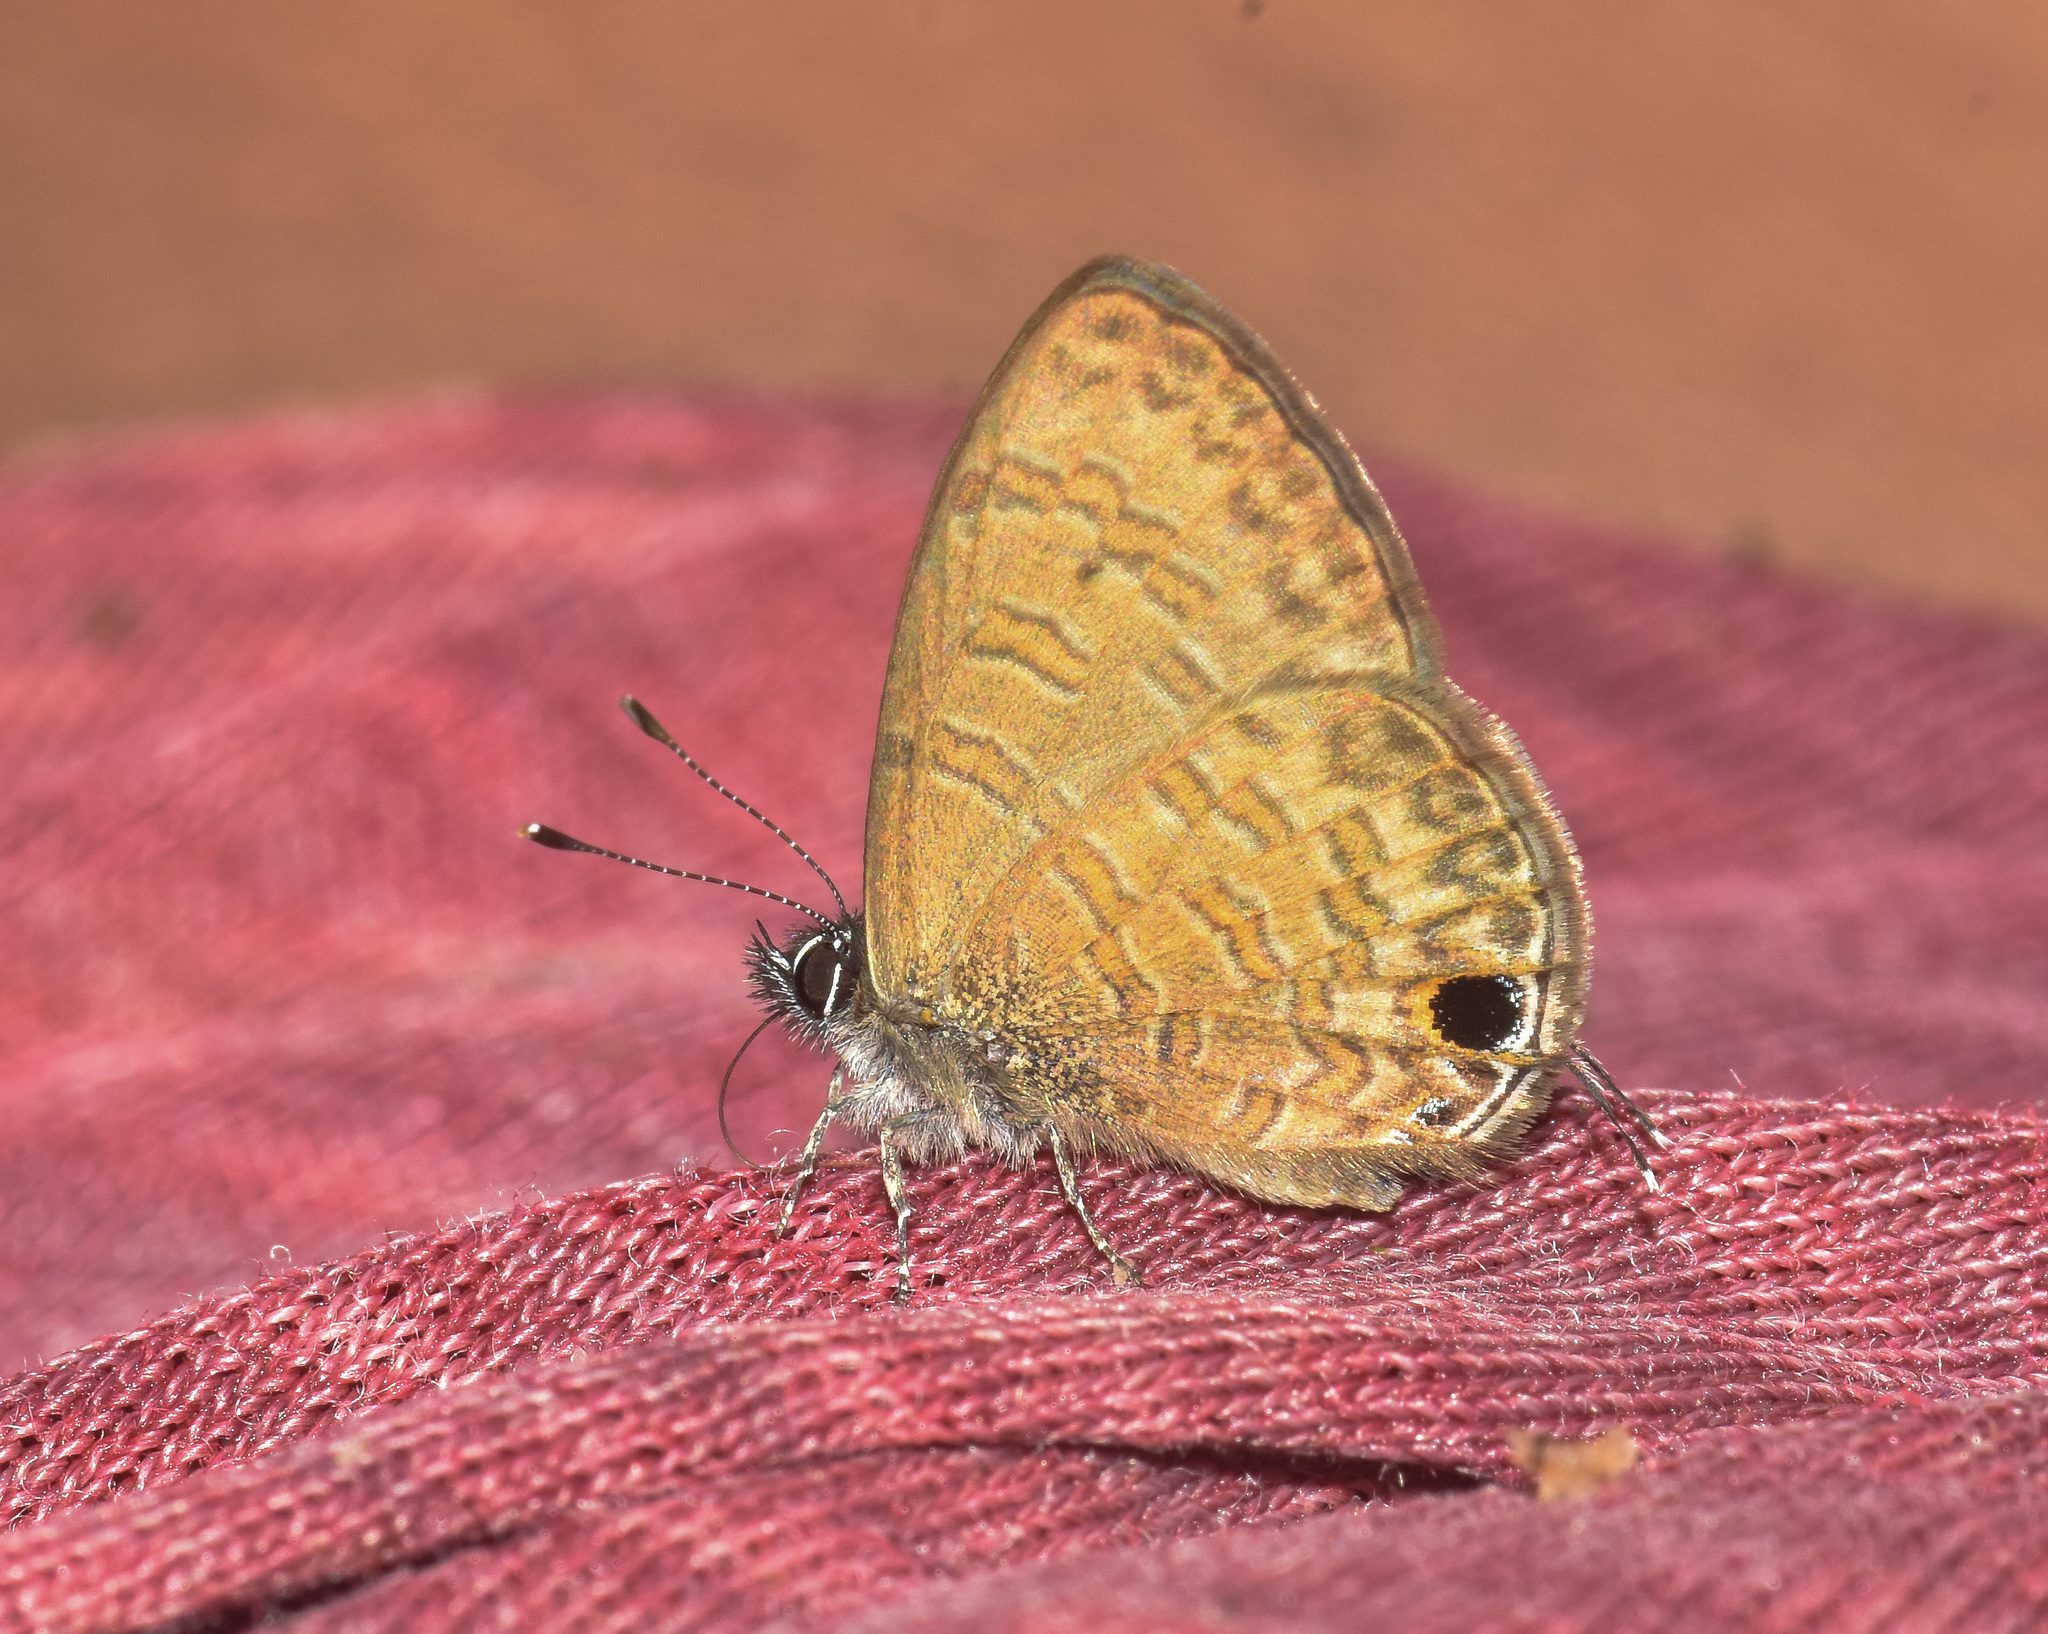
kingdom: Animalia
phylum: Arthropoda
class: Insecta
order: Lepidoptera
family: Lycaenidae
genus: Prosotas
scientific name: Prosotas nora
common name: Common line blue
